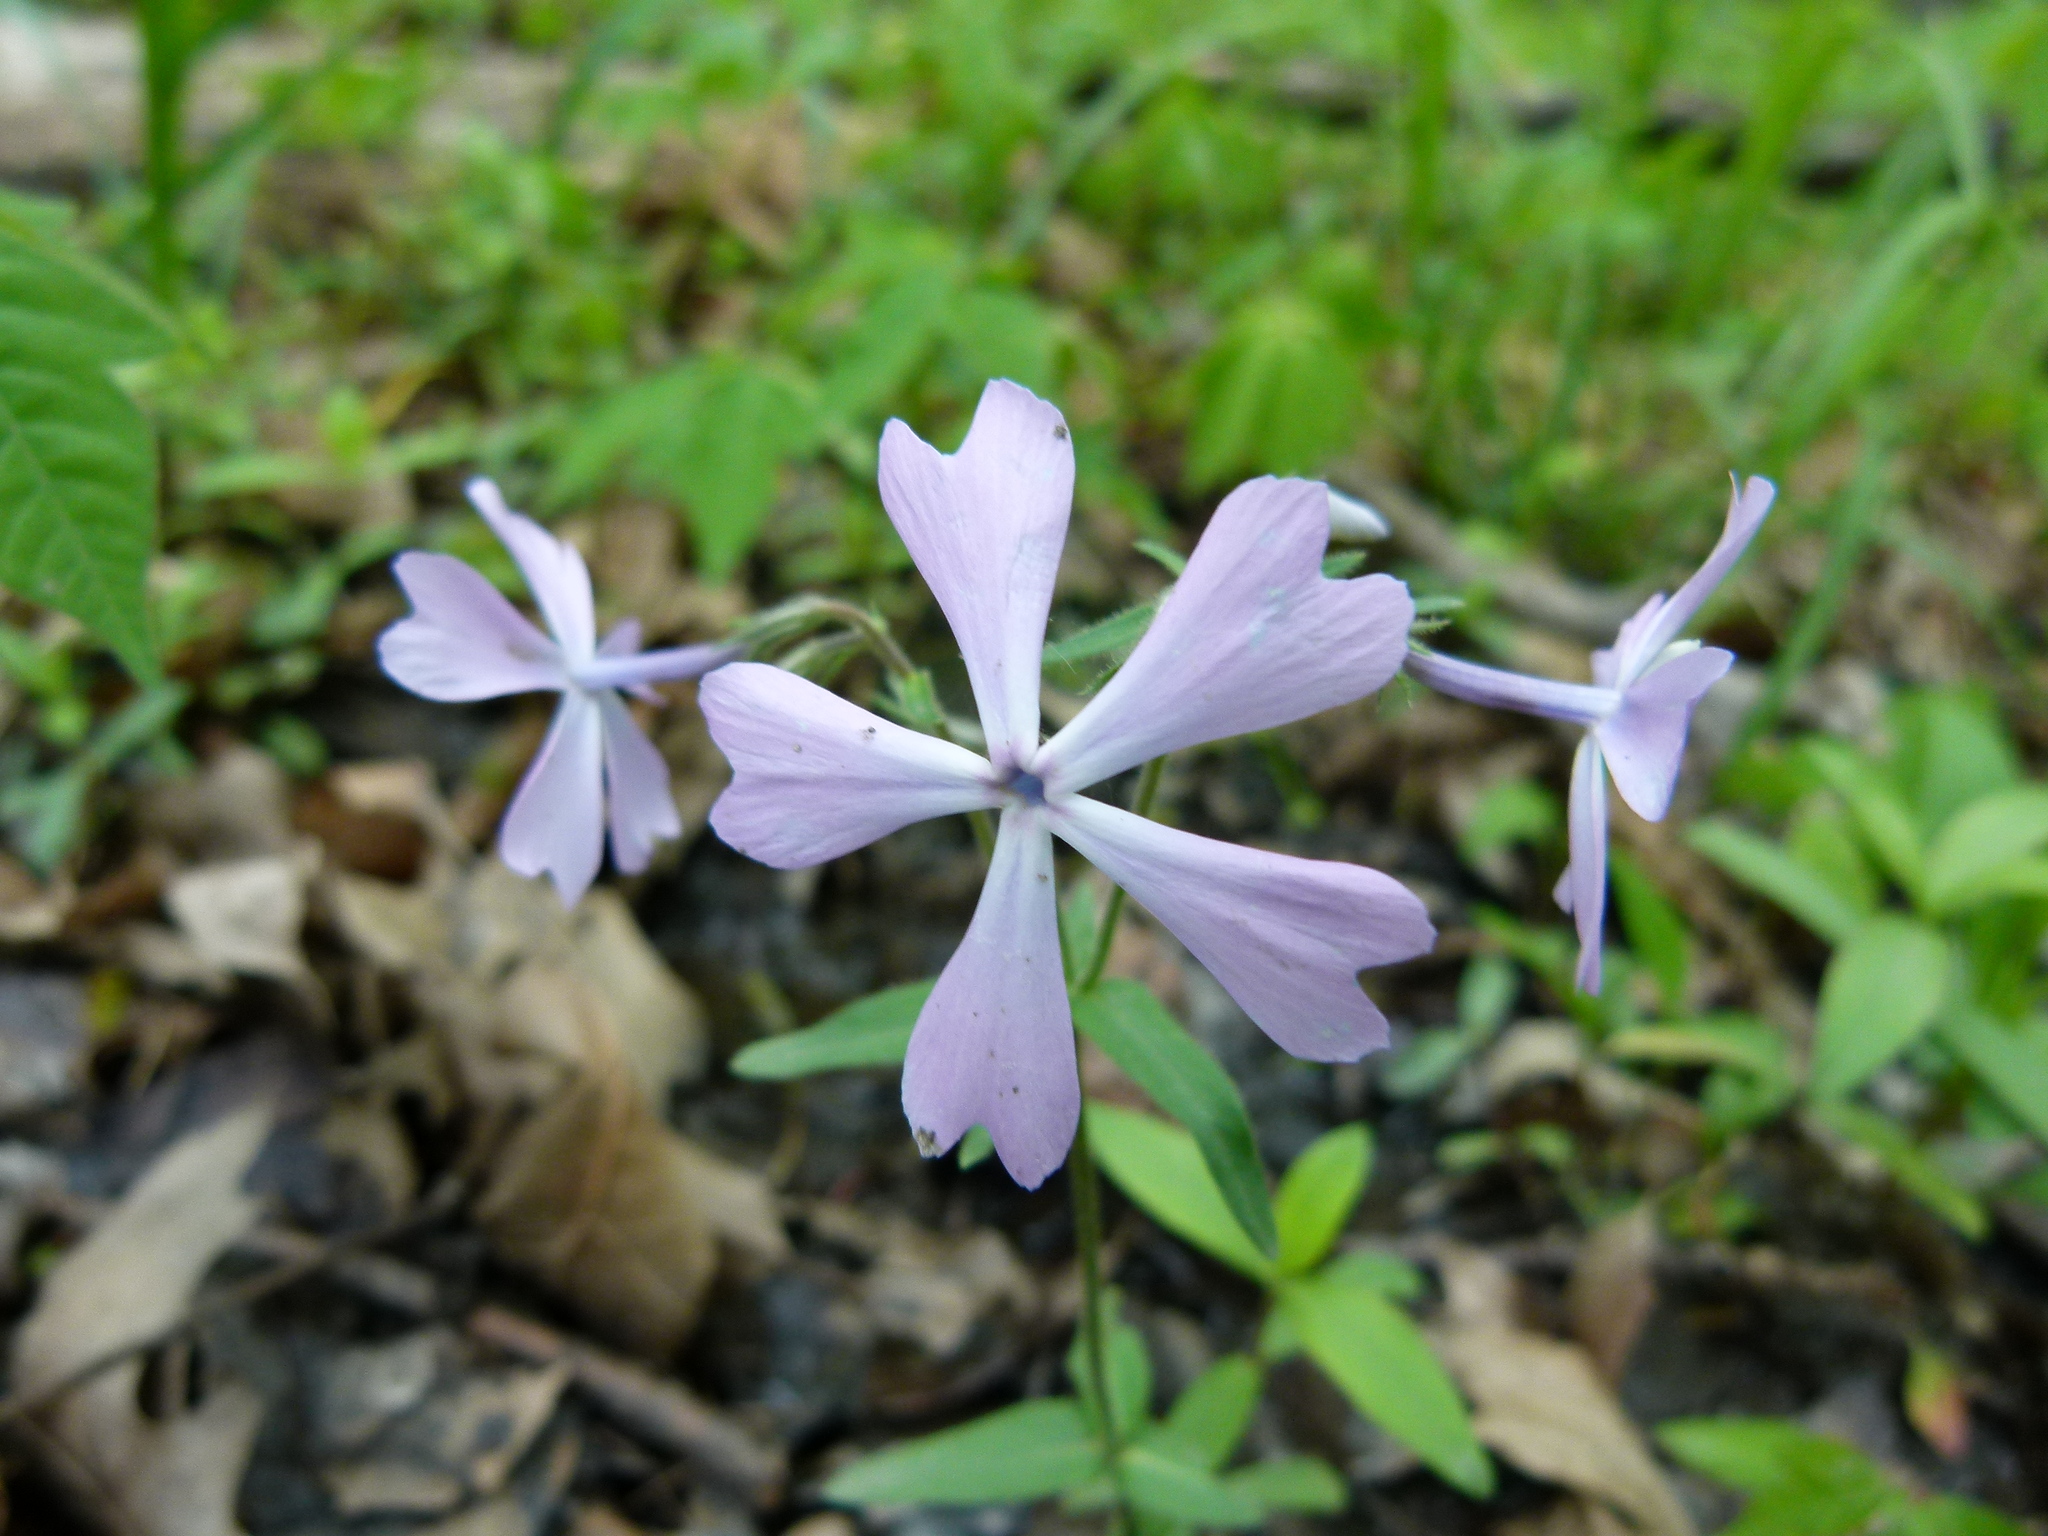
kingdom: Plantae
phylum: Tracheophyta
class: Magnoliopsida
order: Ericales
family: Polemoniaceae
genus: Phlox
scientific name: Phlox divaricata
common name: Blue phlox
